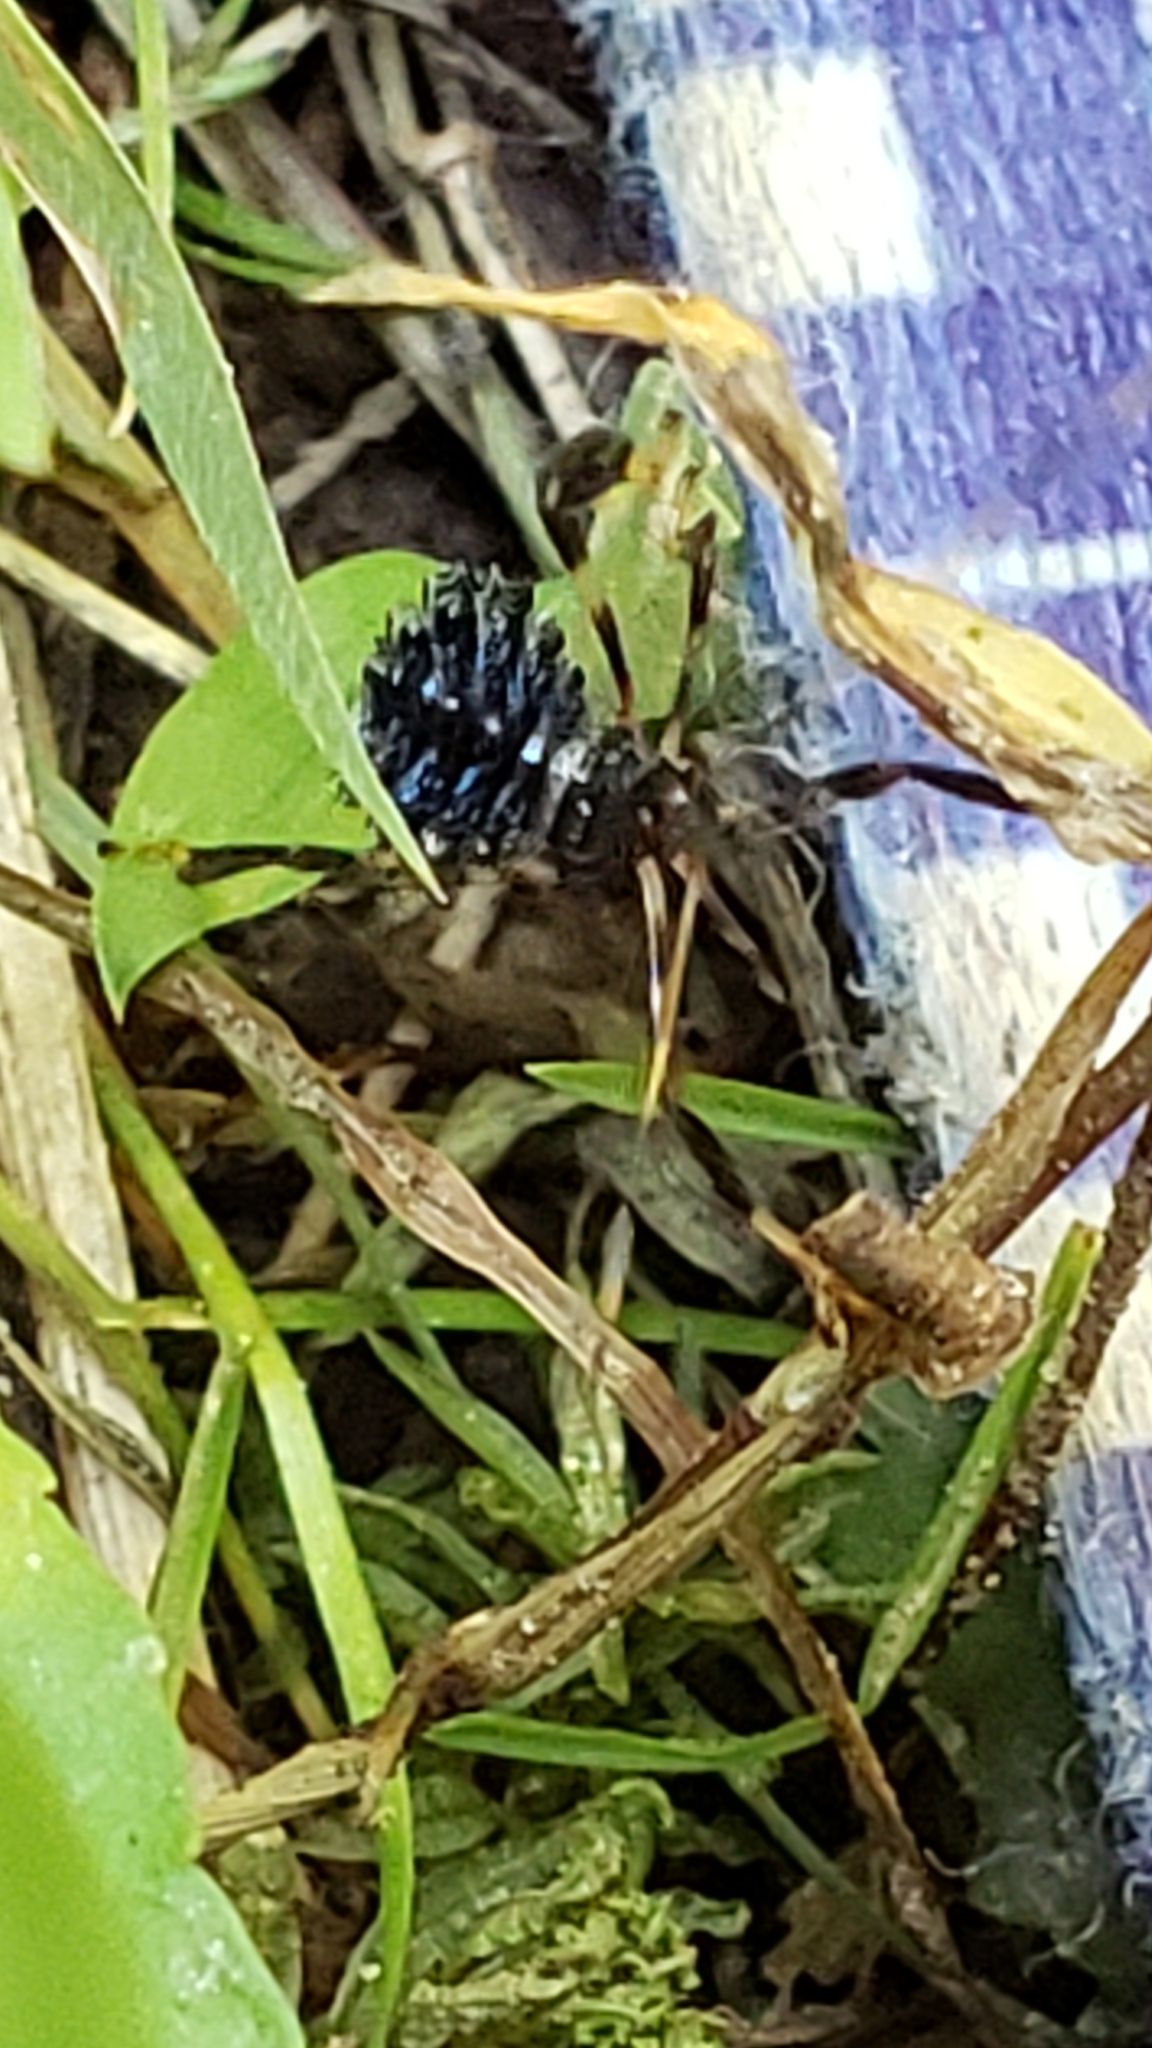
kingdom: Animalia
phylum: Arthropoda
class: Insecta
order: Hemiptera
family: Coreidae
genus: Acanthocephala
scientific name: Acanthocephala terminalis
